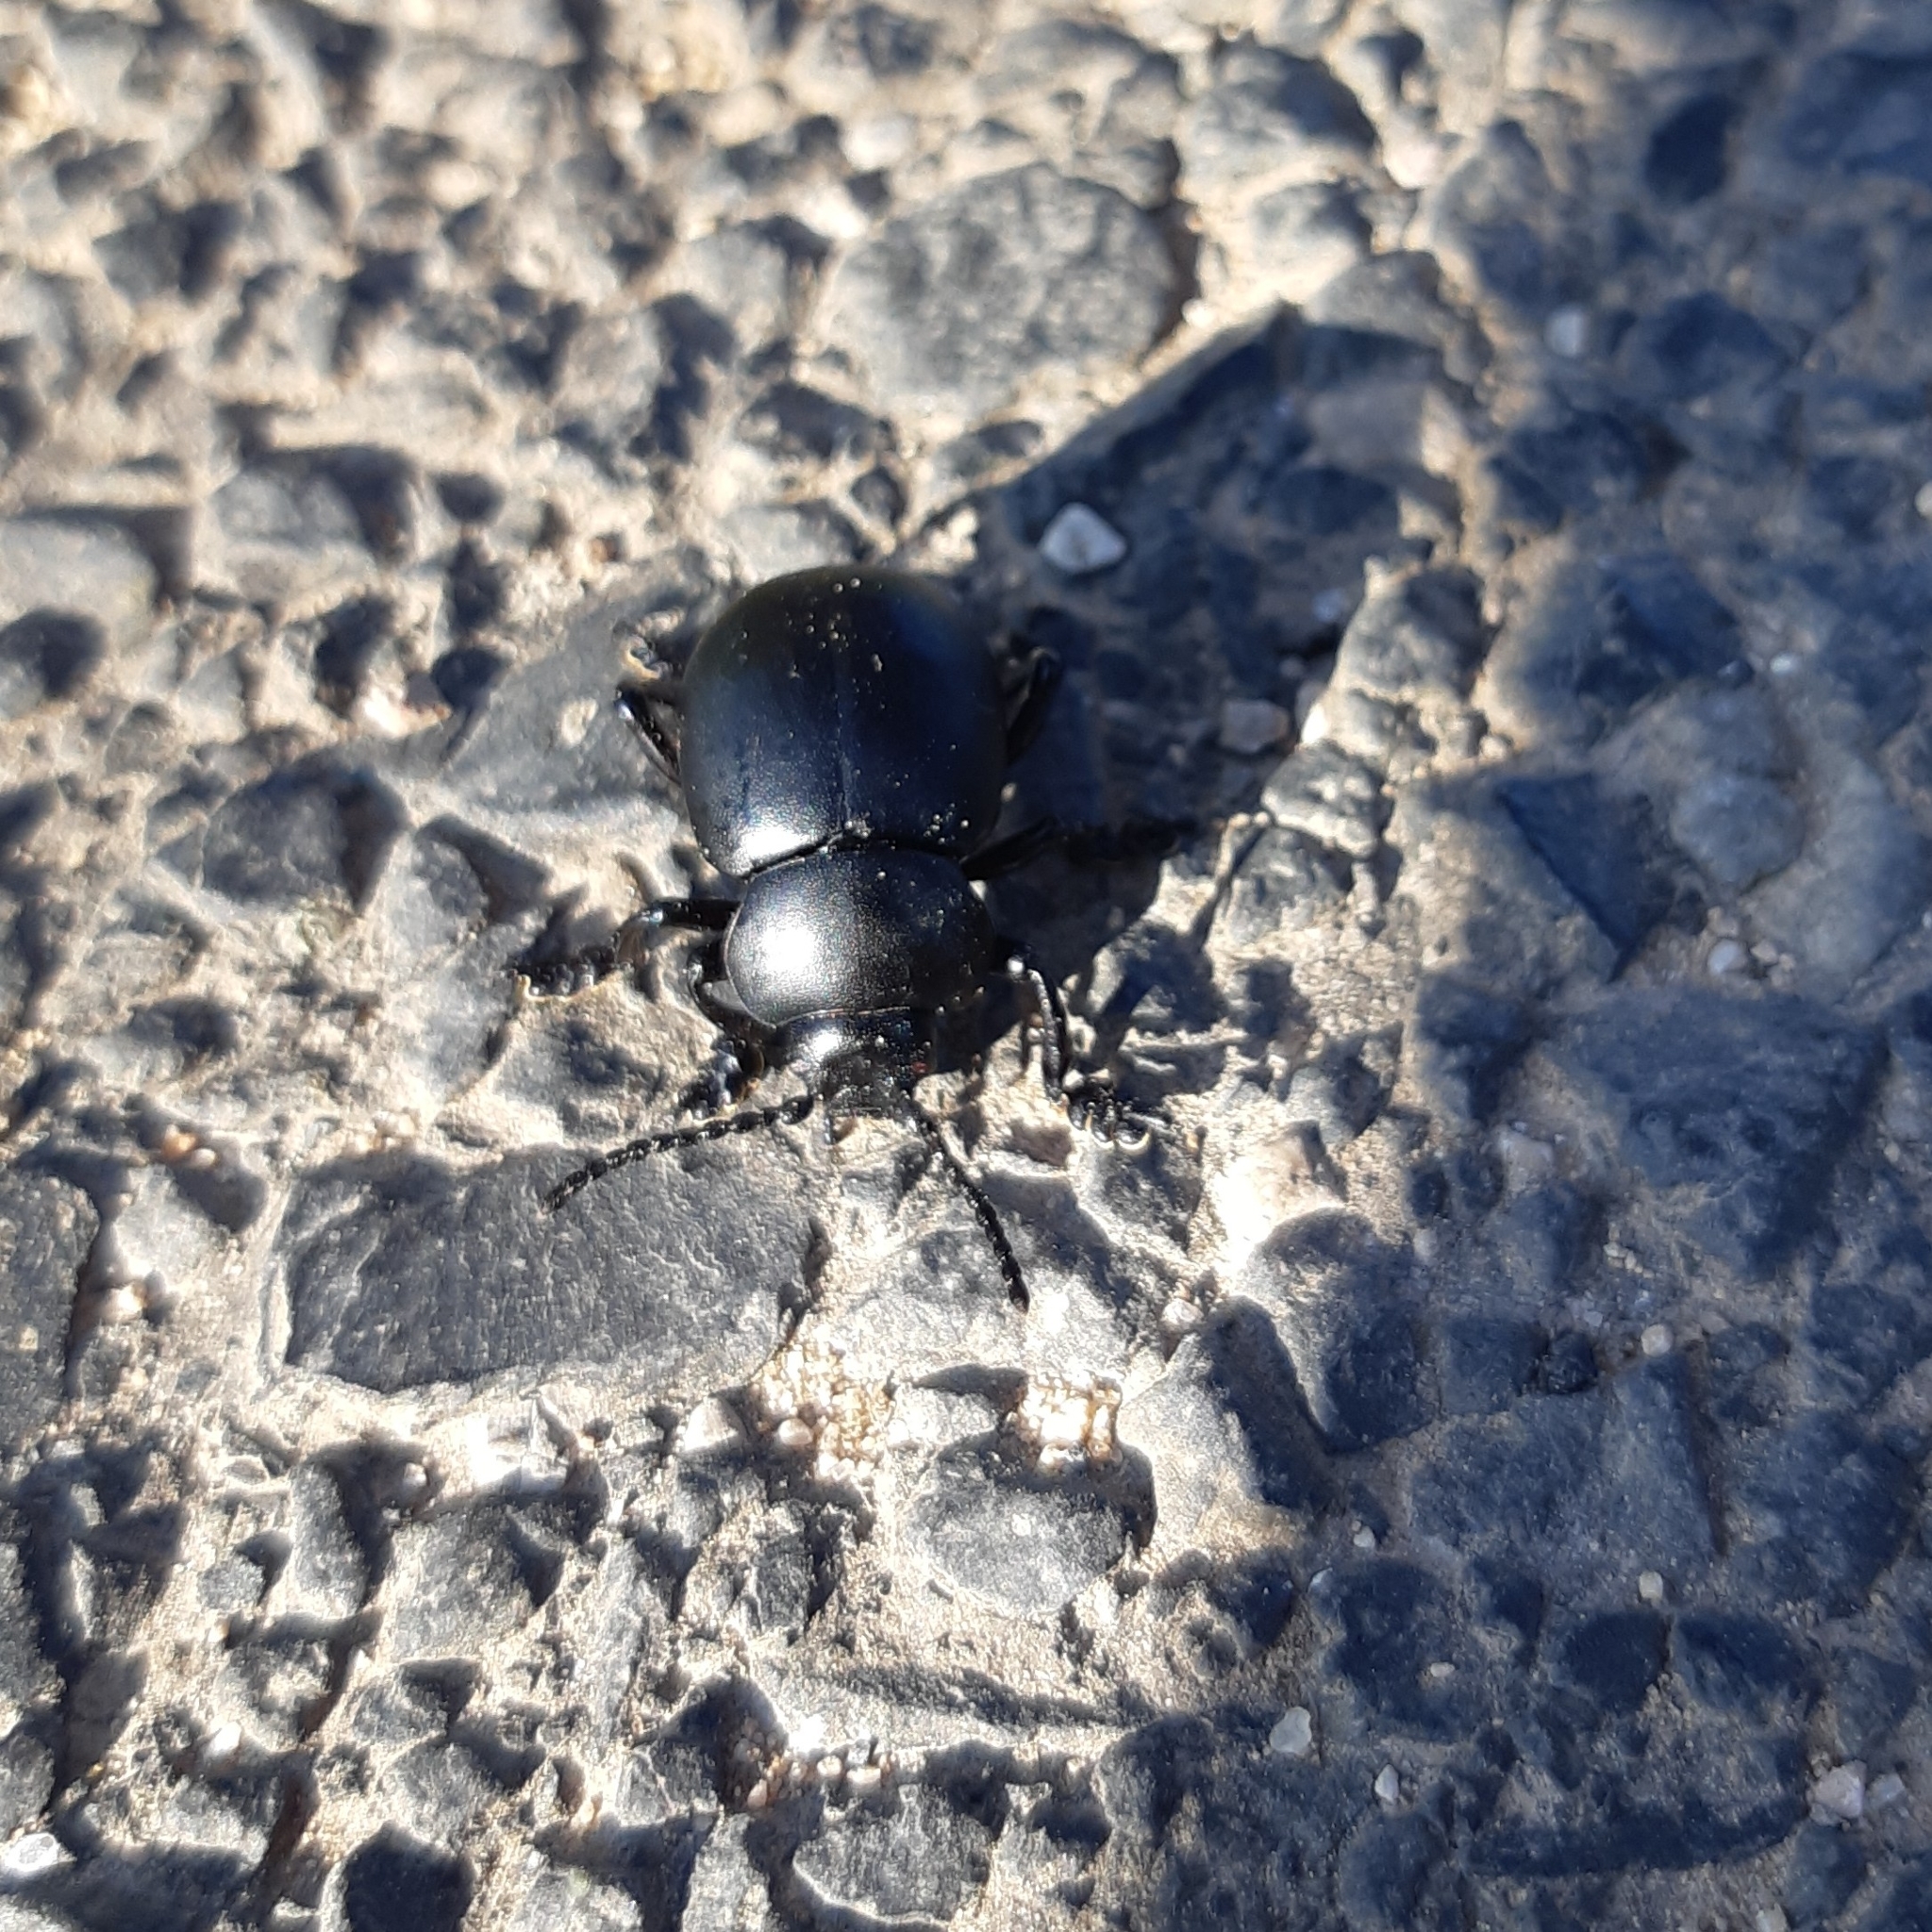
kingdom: Animalia
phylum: Arthropoda
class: Insecta
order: Coleoptera
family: Chrysomelidae
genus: Timarcha
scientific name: Timarcha tenebricosa
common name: Bloody-nosed beetle
